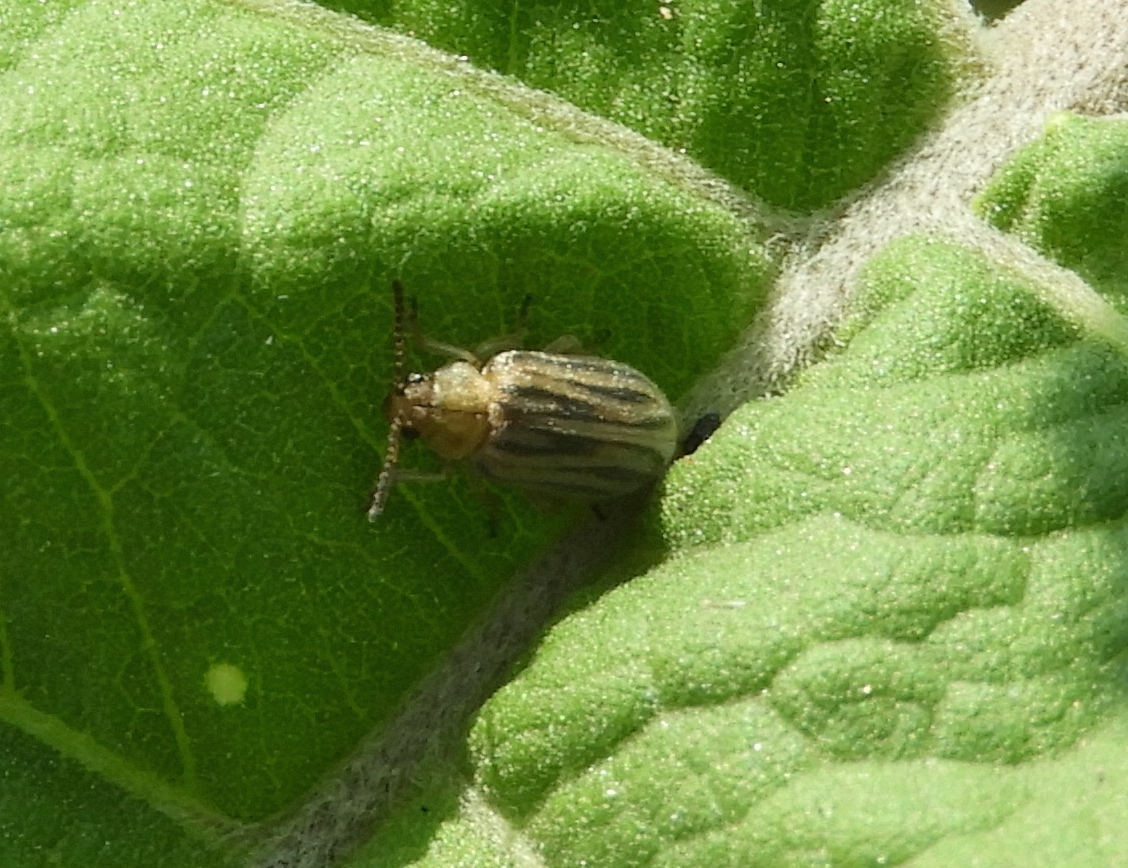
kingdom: Animalia
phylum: Arthropoda
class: Insecta
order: Coleoptera
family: Chrysomelidae
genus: Ophraella
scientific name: Ophraella
